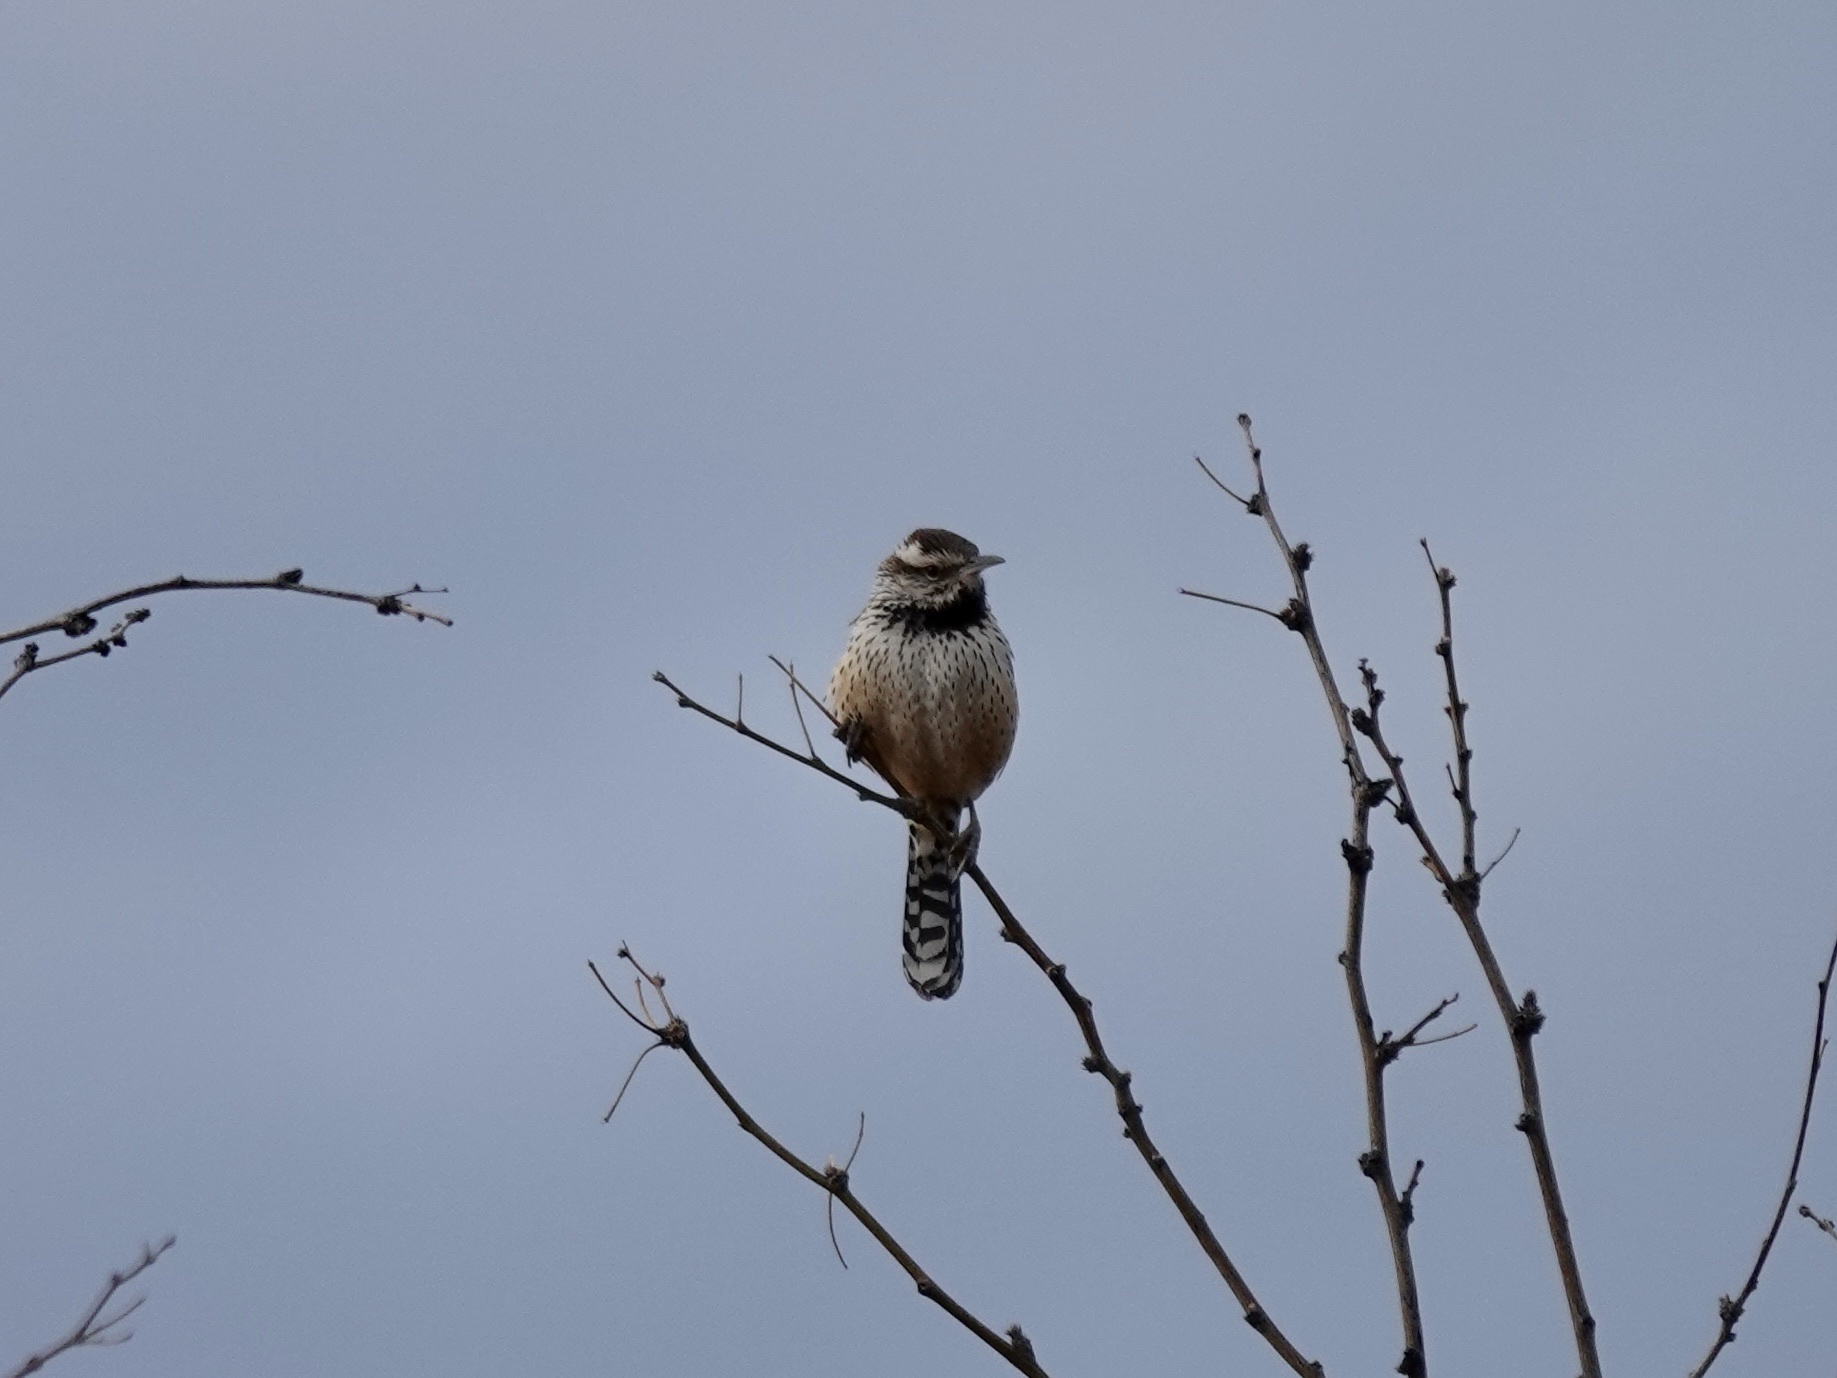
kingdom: Animalia
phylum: Chordata
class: Aves
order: Passeriformes
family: Troglodytidae
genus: Campylorhynchus
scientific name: Campylorhynchus brunneicapillus
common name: Cactus wren
